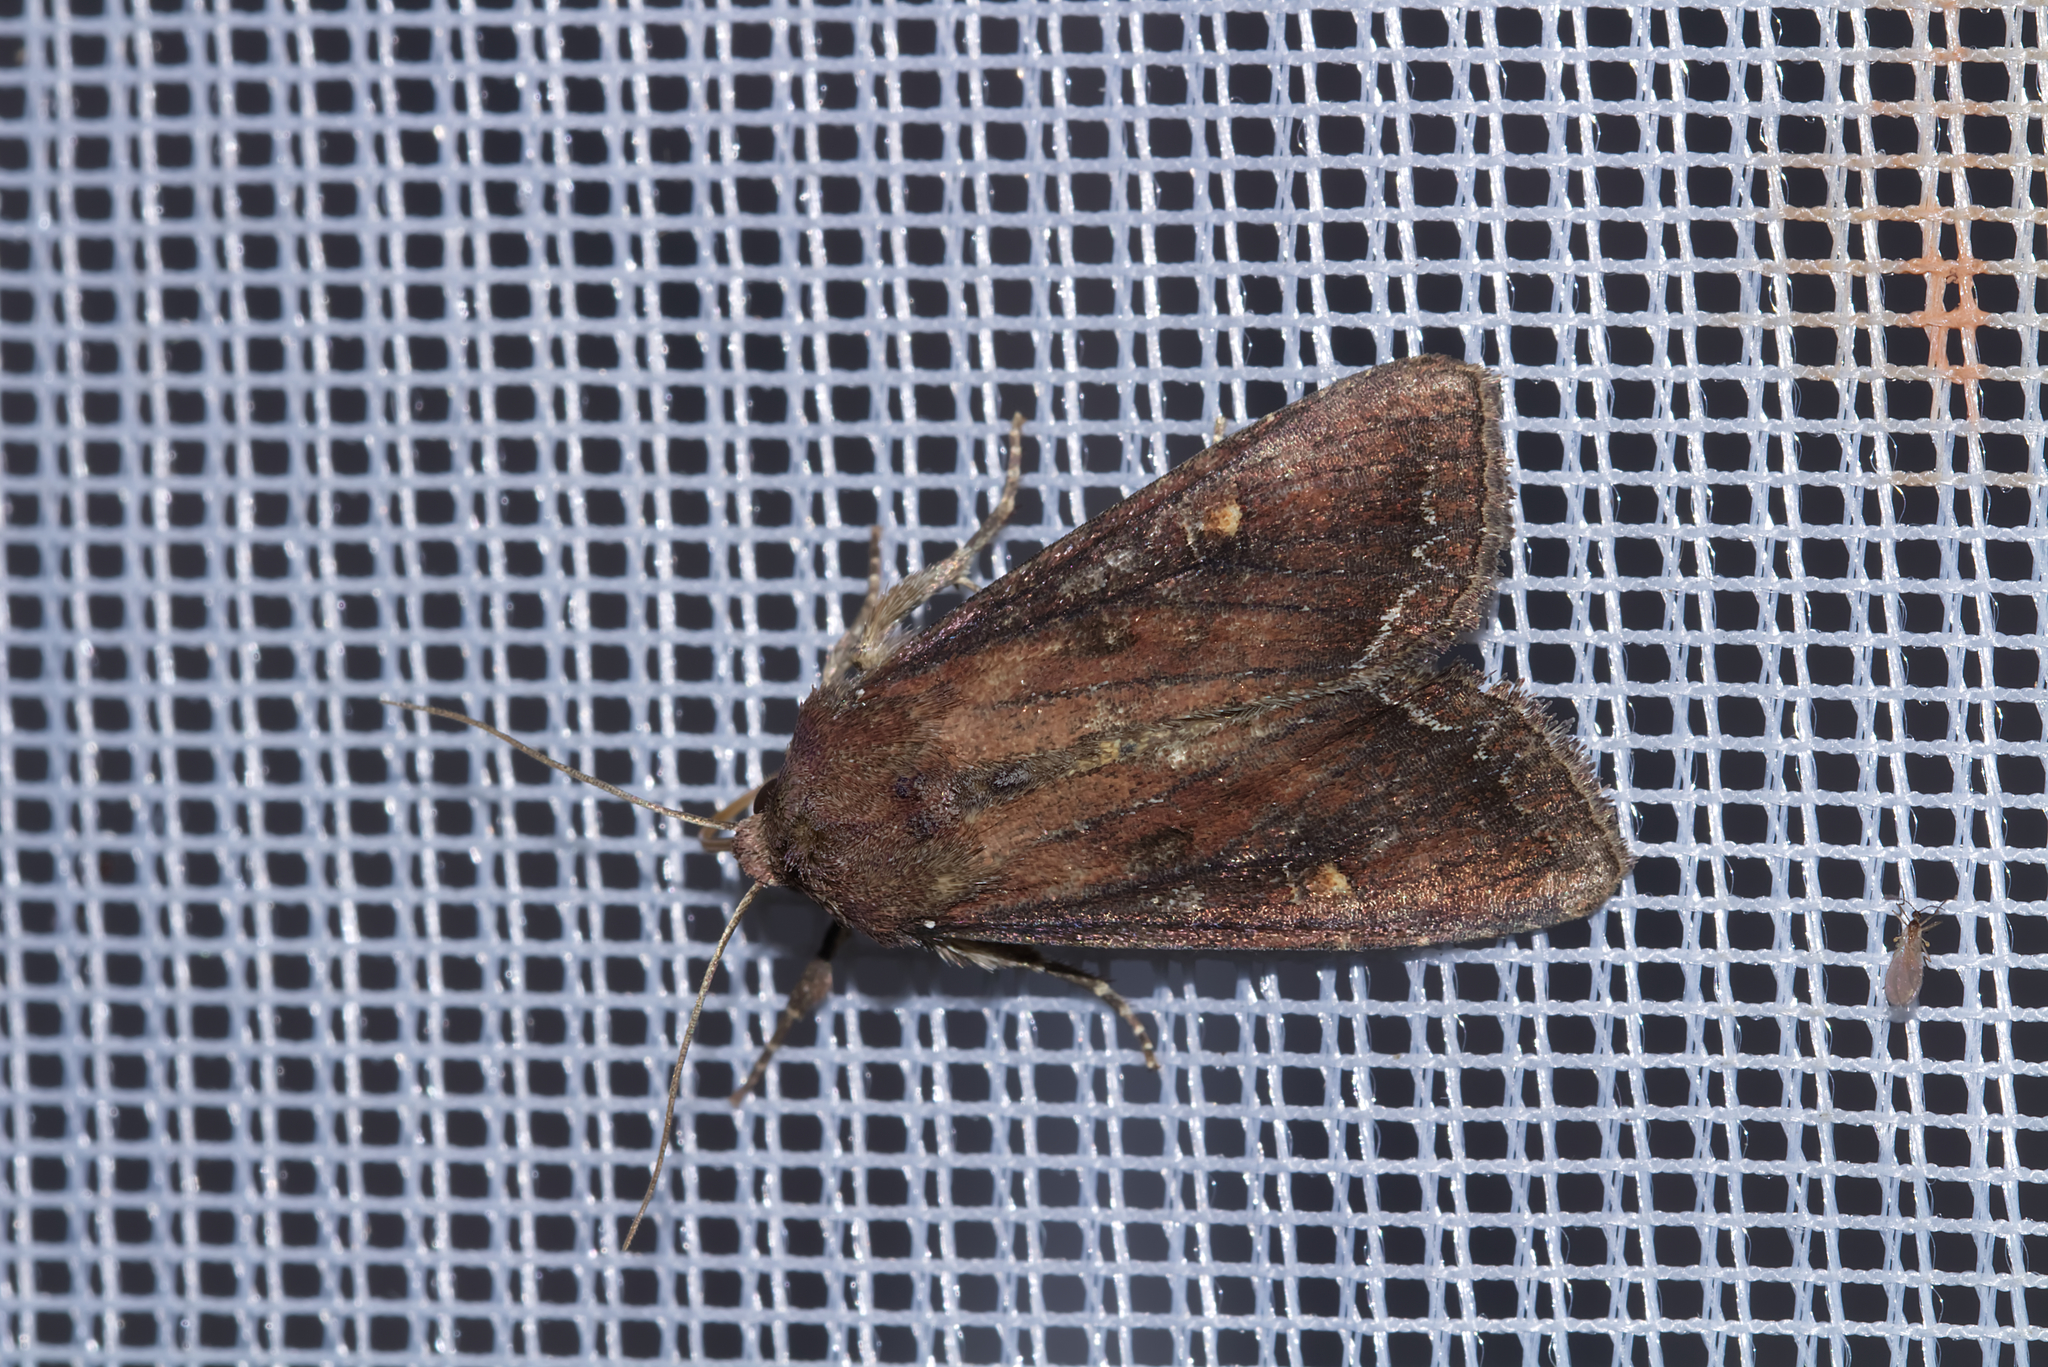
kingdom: Animalia
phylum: Arthropoda
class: Insecta
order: Lepidoptera
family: Noctuidae
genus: Lacanobia
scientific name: Lacanobia oleracea
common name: Bright-line brown-eye
